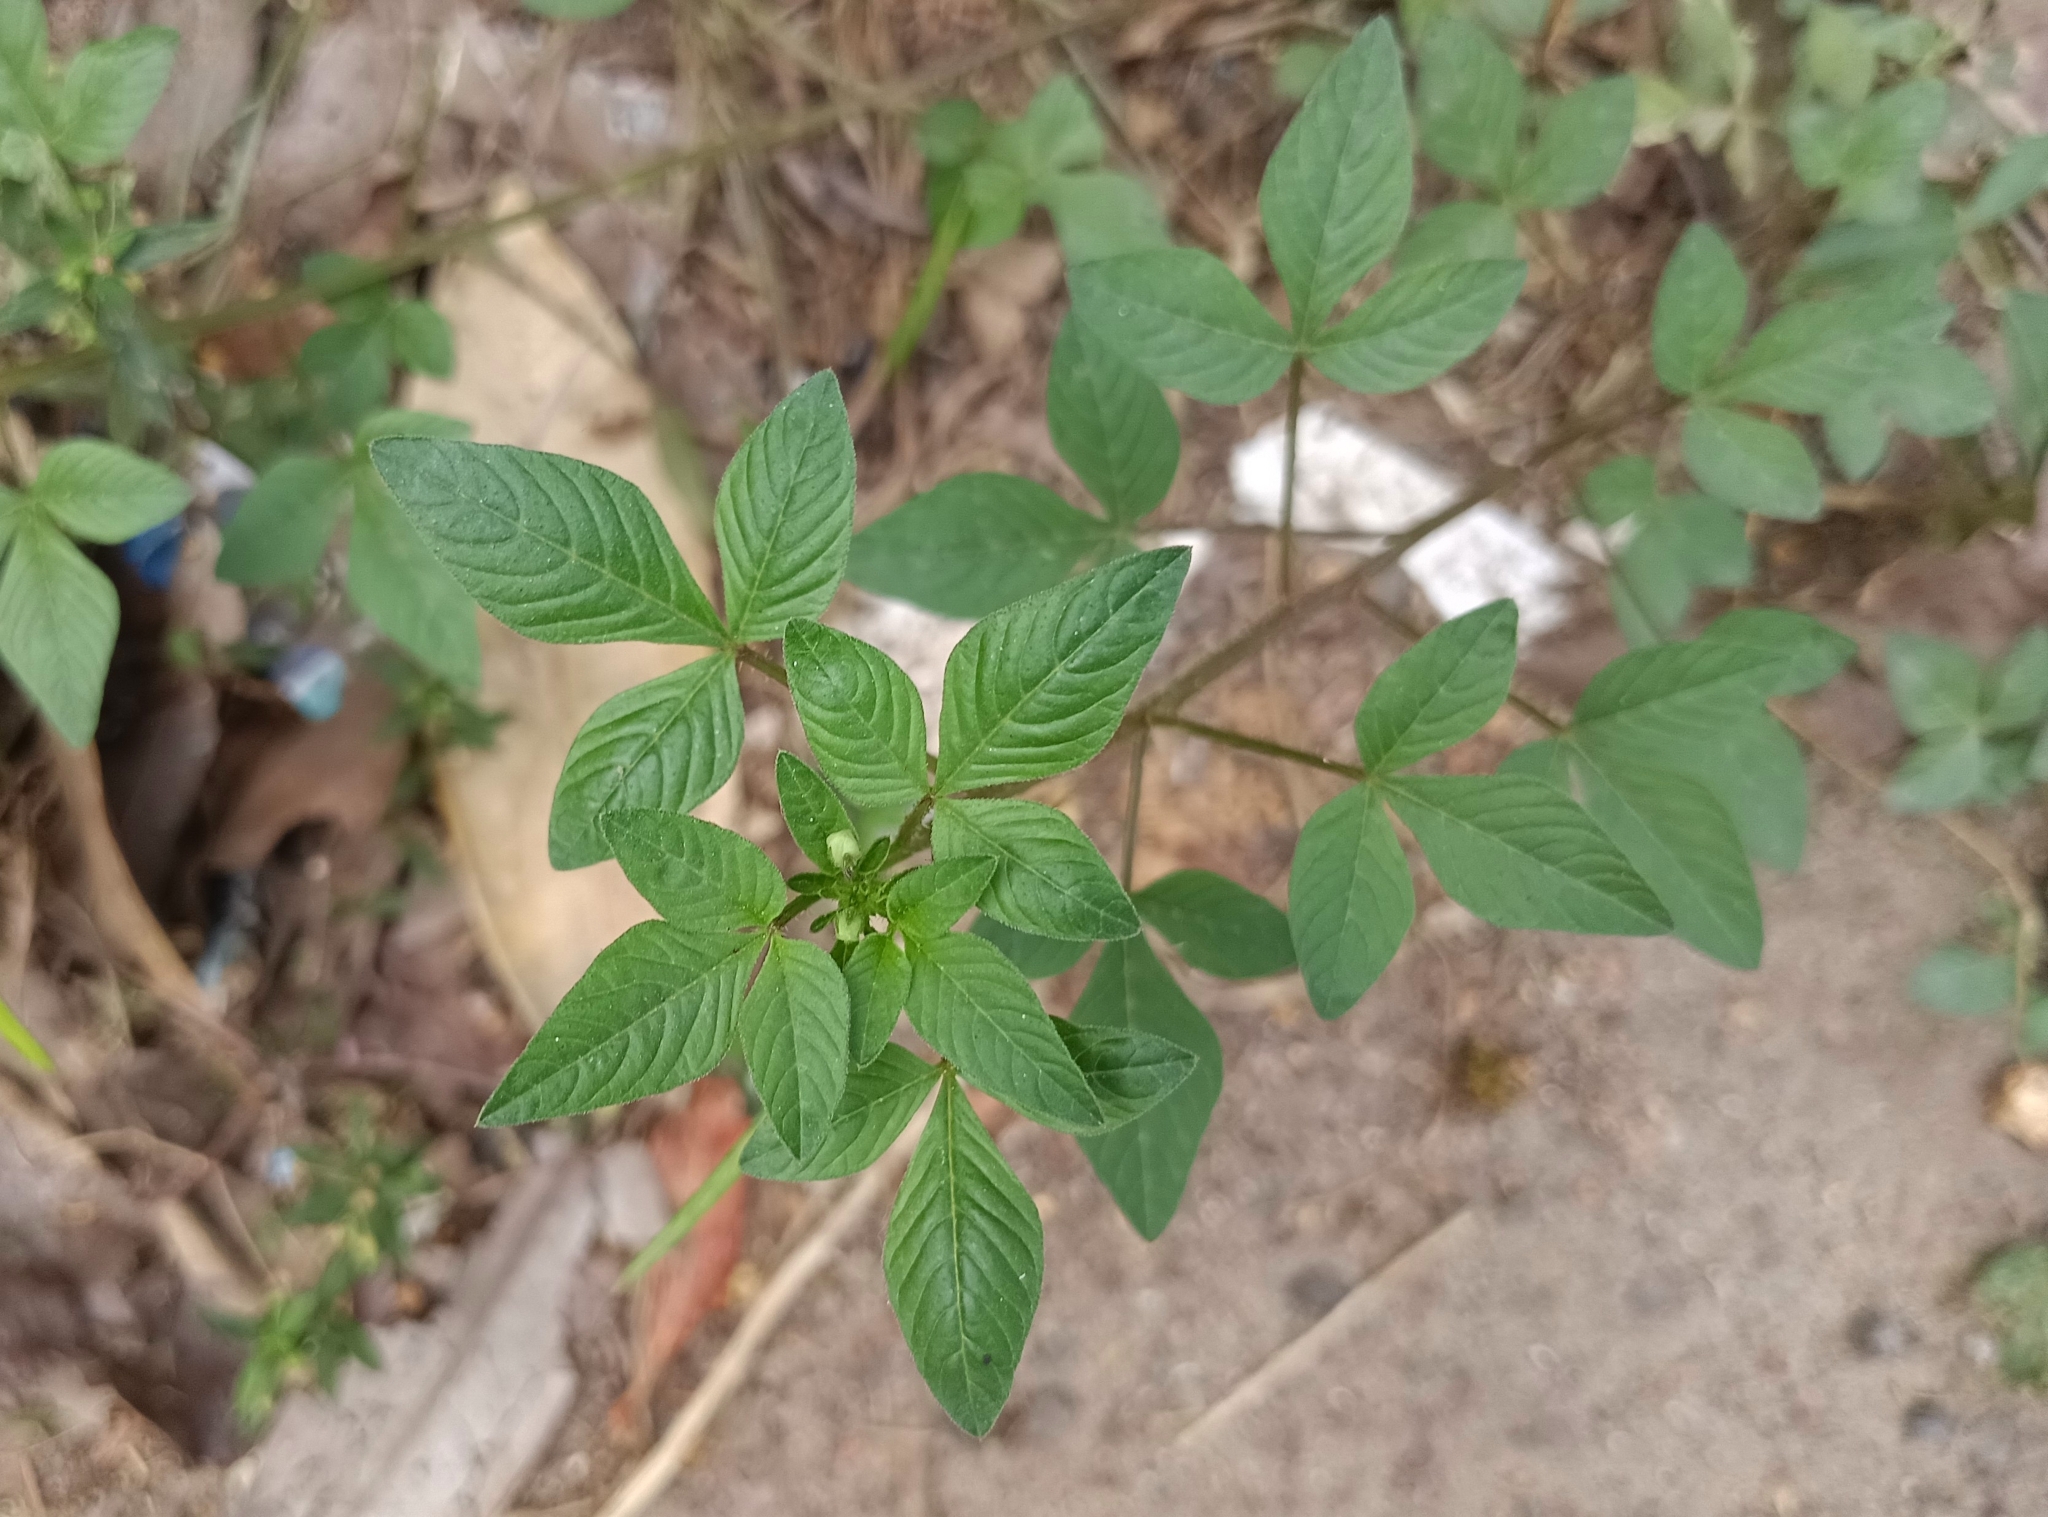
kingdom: Plantae
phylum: Tracheophyta
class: Magnoliopsida
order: Brassicales
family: Cleomaceae
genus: Sieruela
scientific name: Sieruela rutidosperma
